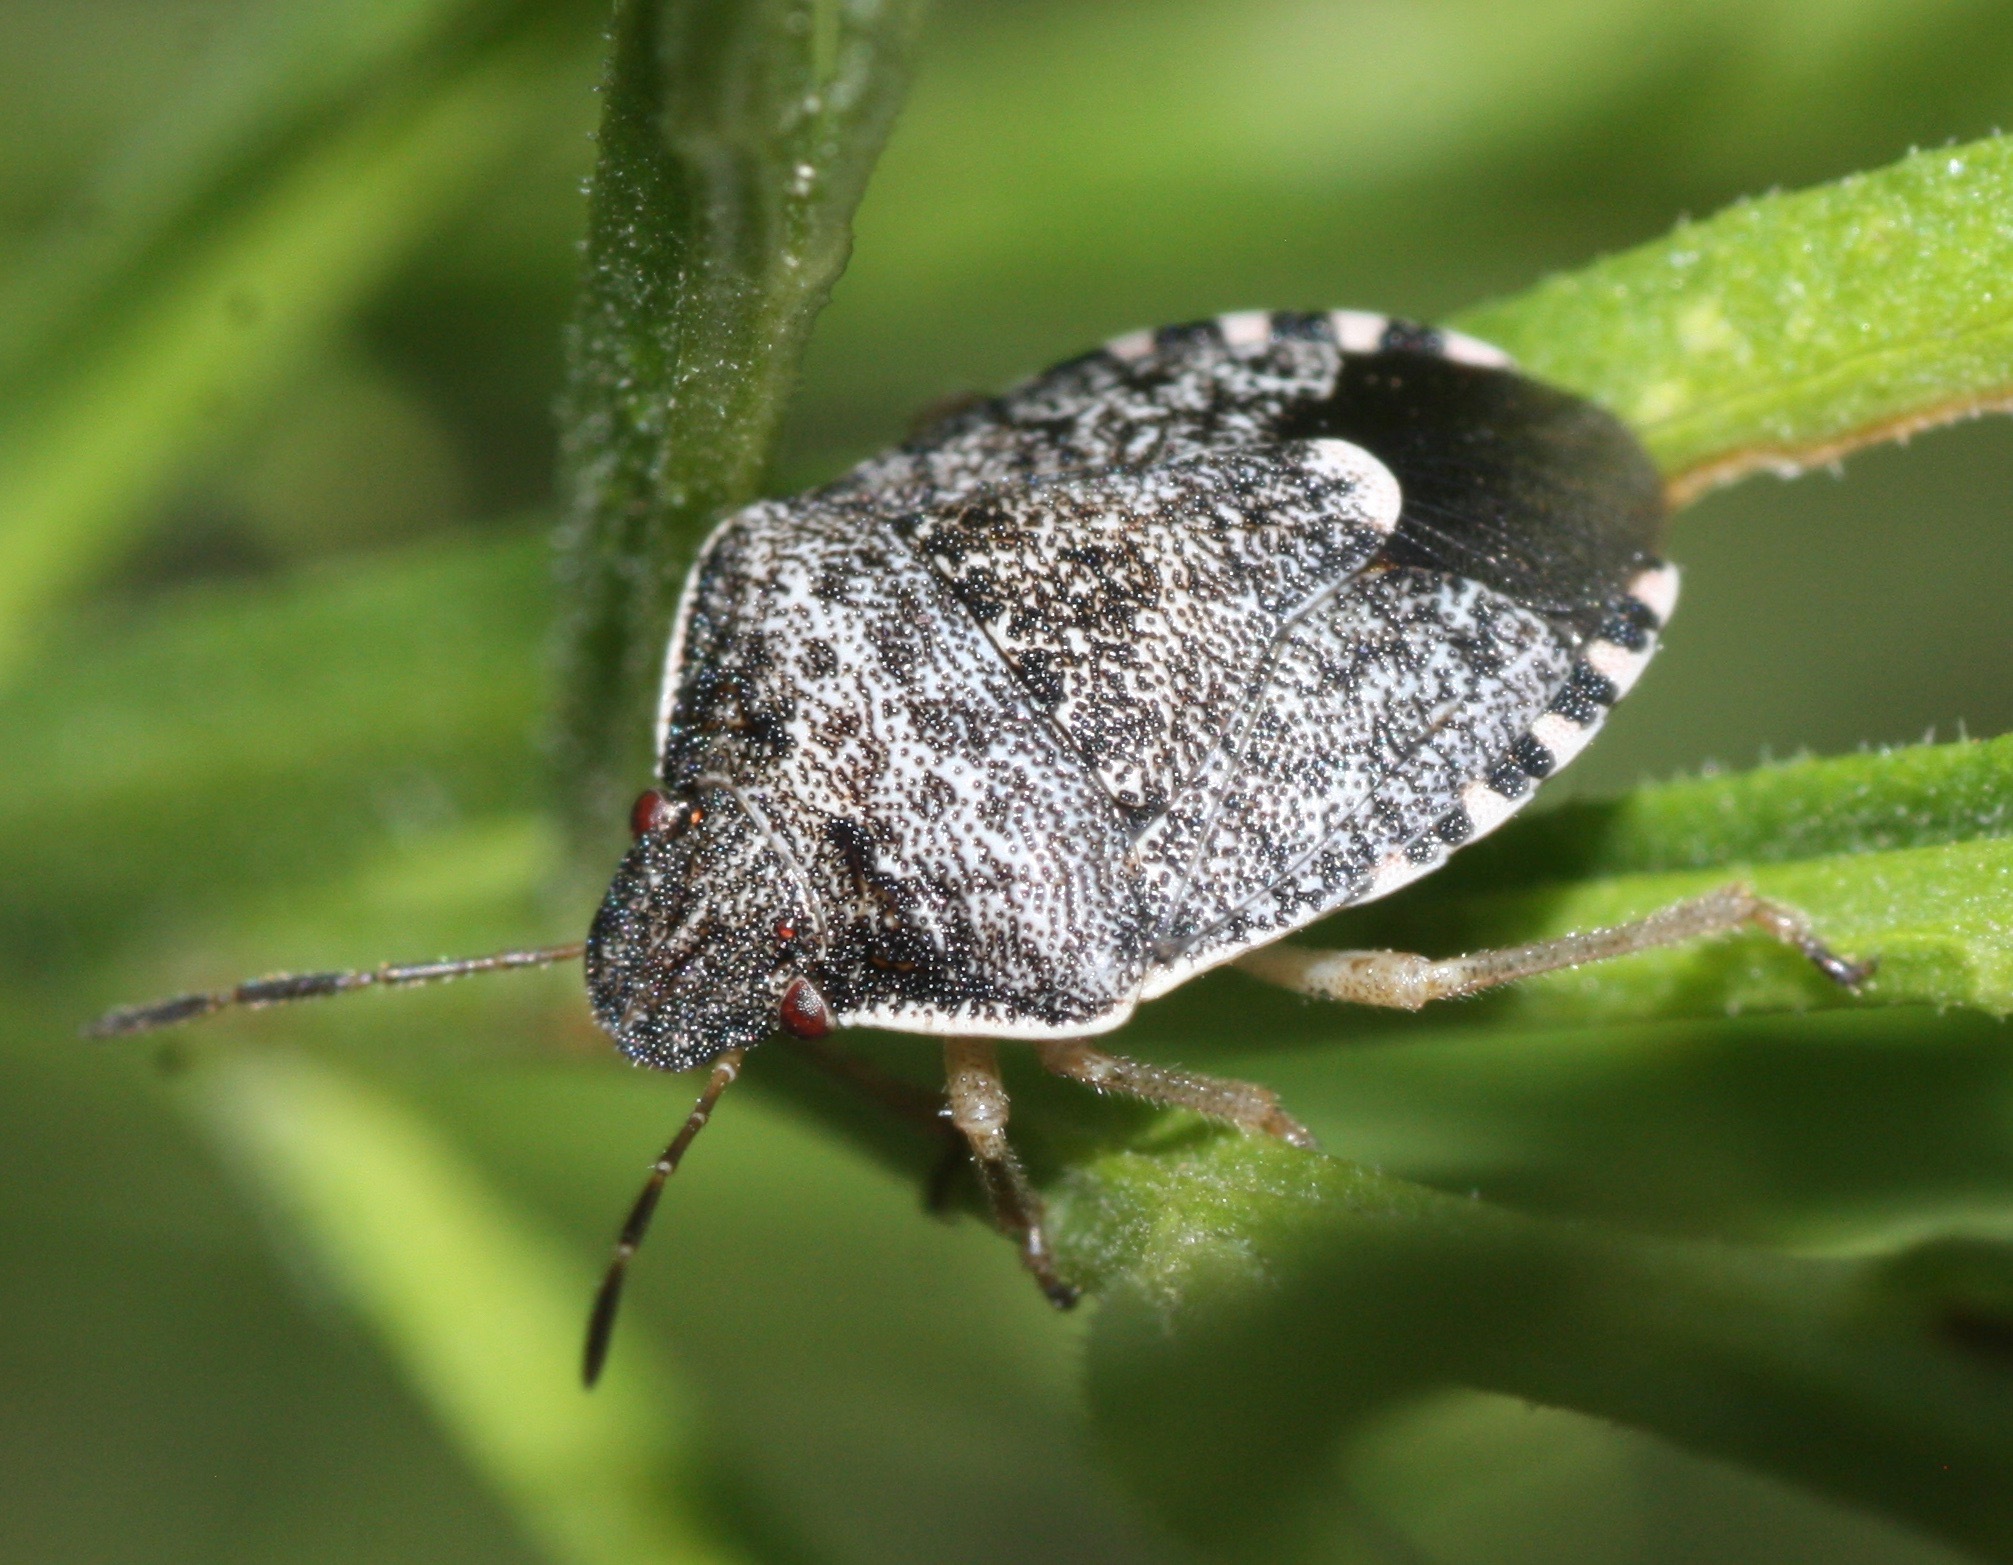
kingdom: Animalia
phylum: Arthropoda
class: Insecta
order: Hemiptera
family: Pentatomidae
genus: Holcostethus
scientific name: Holcostethus abbreviatus
